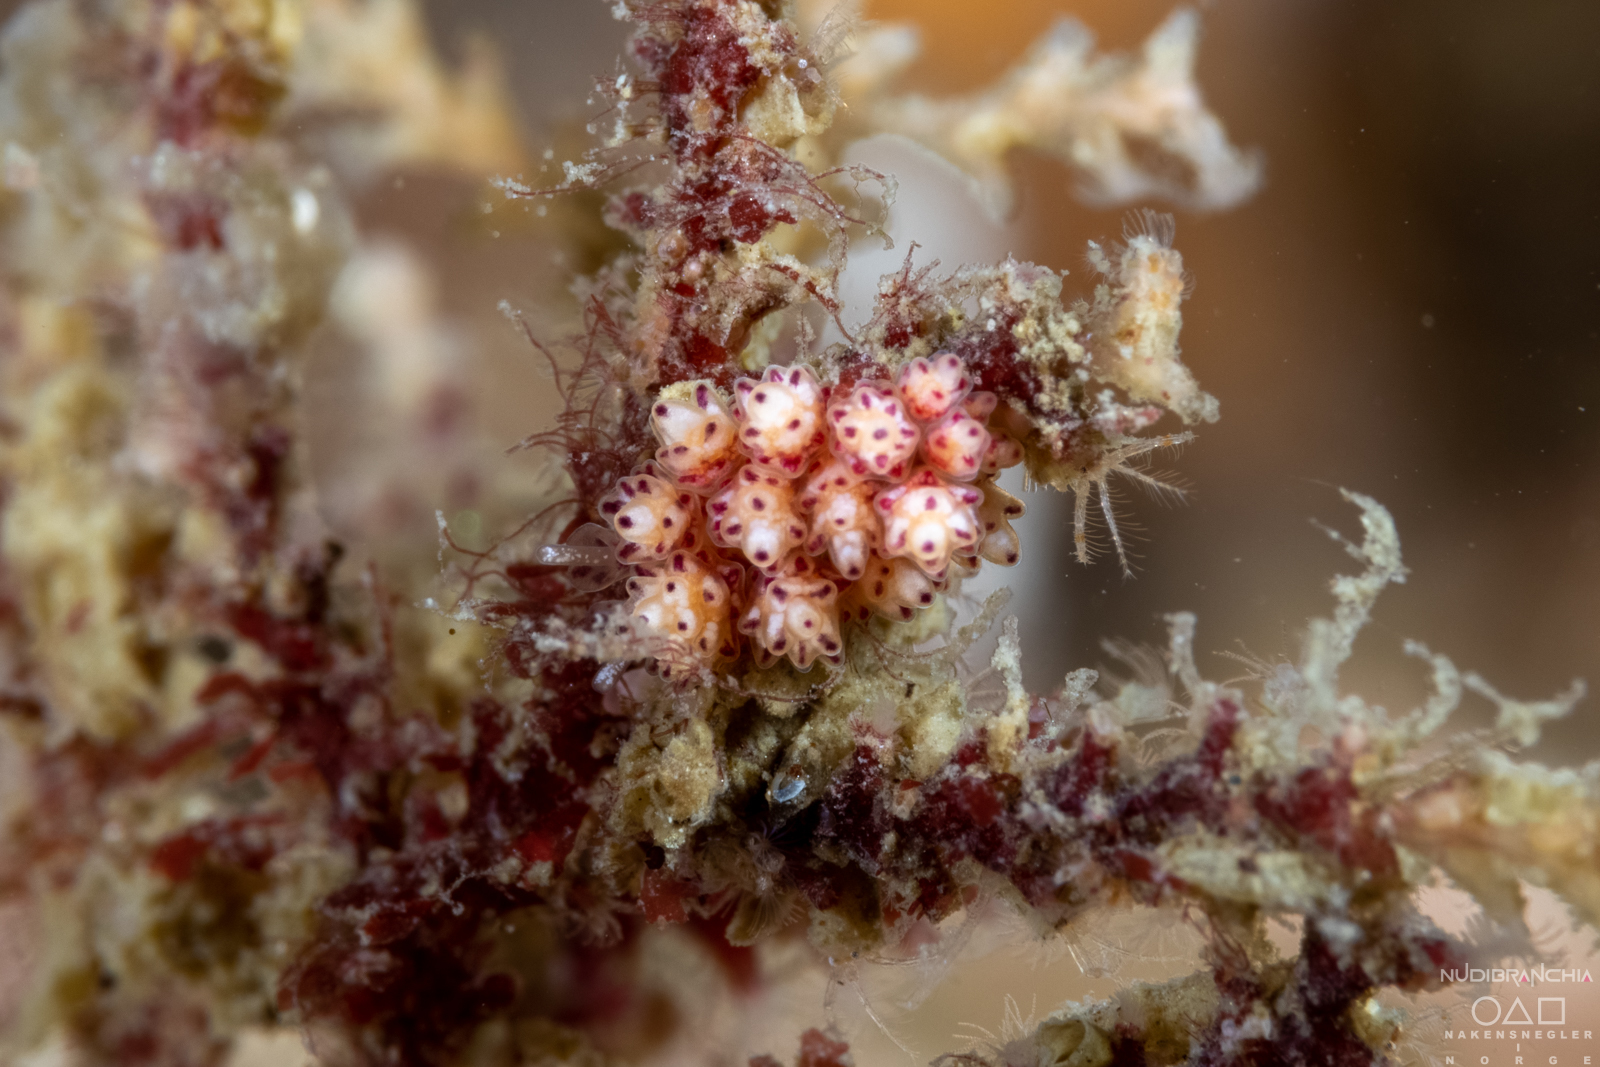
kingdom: Animalia
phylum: Mollusca
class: Gastropoda
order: Nudibranchia
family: Dotidae
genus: Doto
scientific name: Doto coronata
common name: Coronate doto
